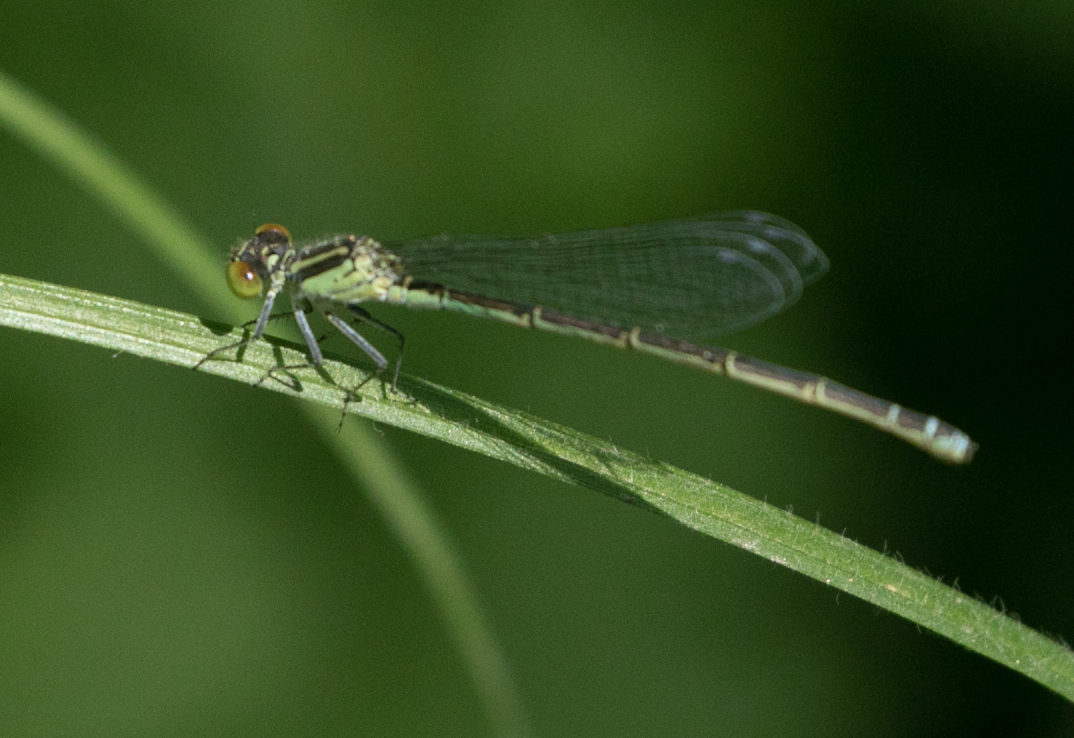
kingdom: Animalia
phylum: Arthropoda
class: Insecta
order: Odonata
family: Coenagrionidae
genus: Erythromma
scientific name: Erythromma viridulum
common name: Small red-eyed damselfly
